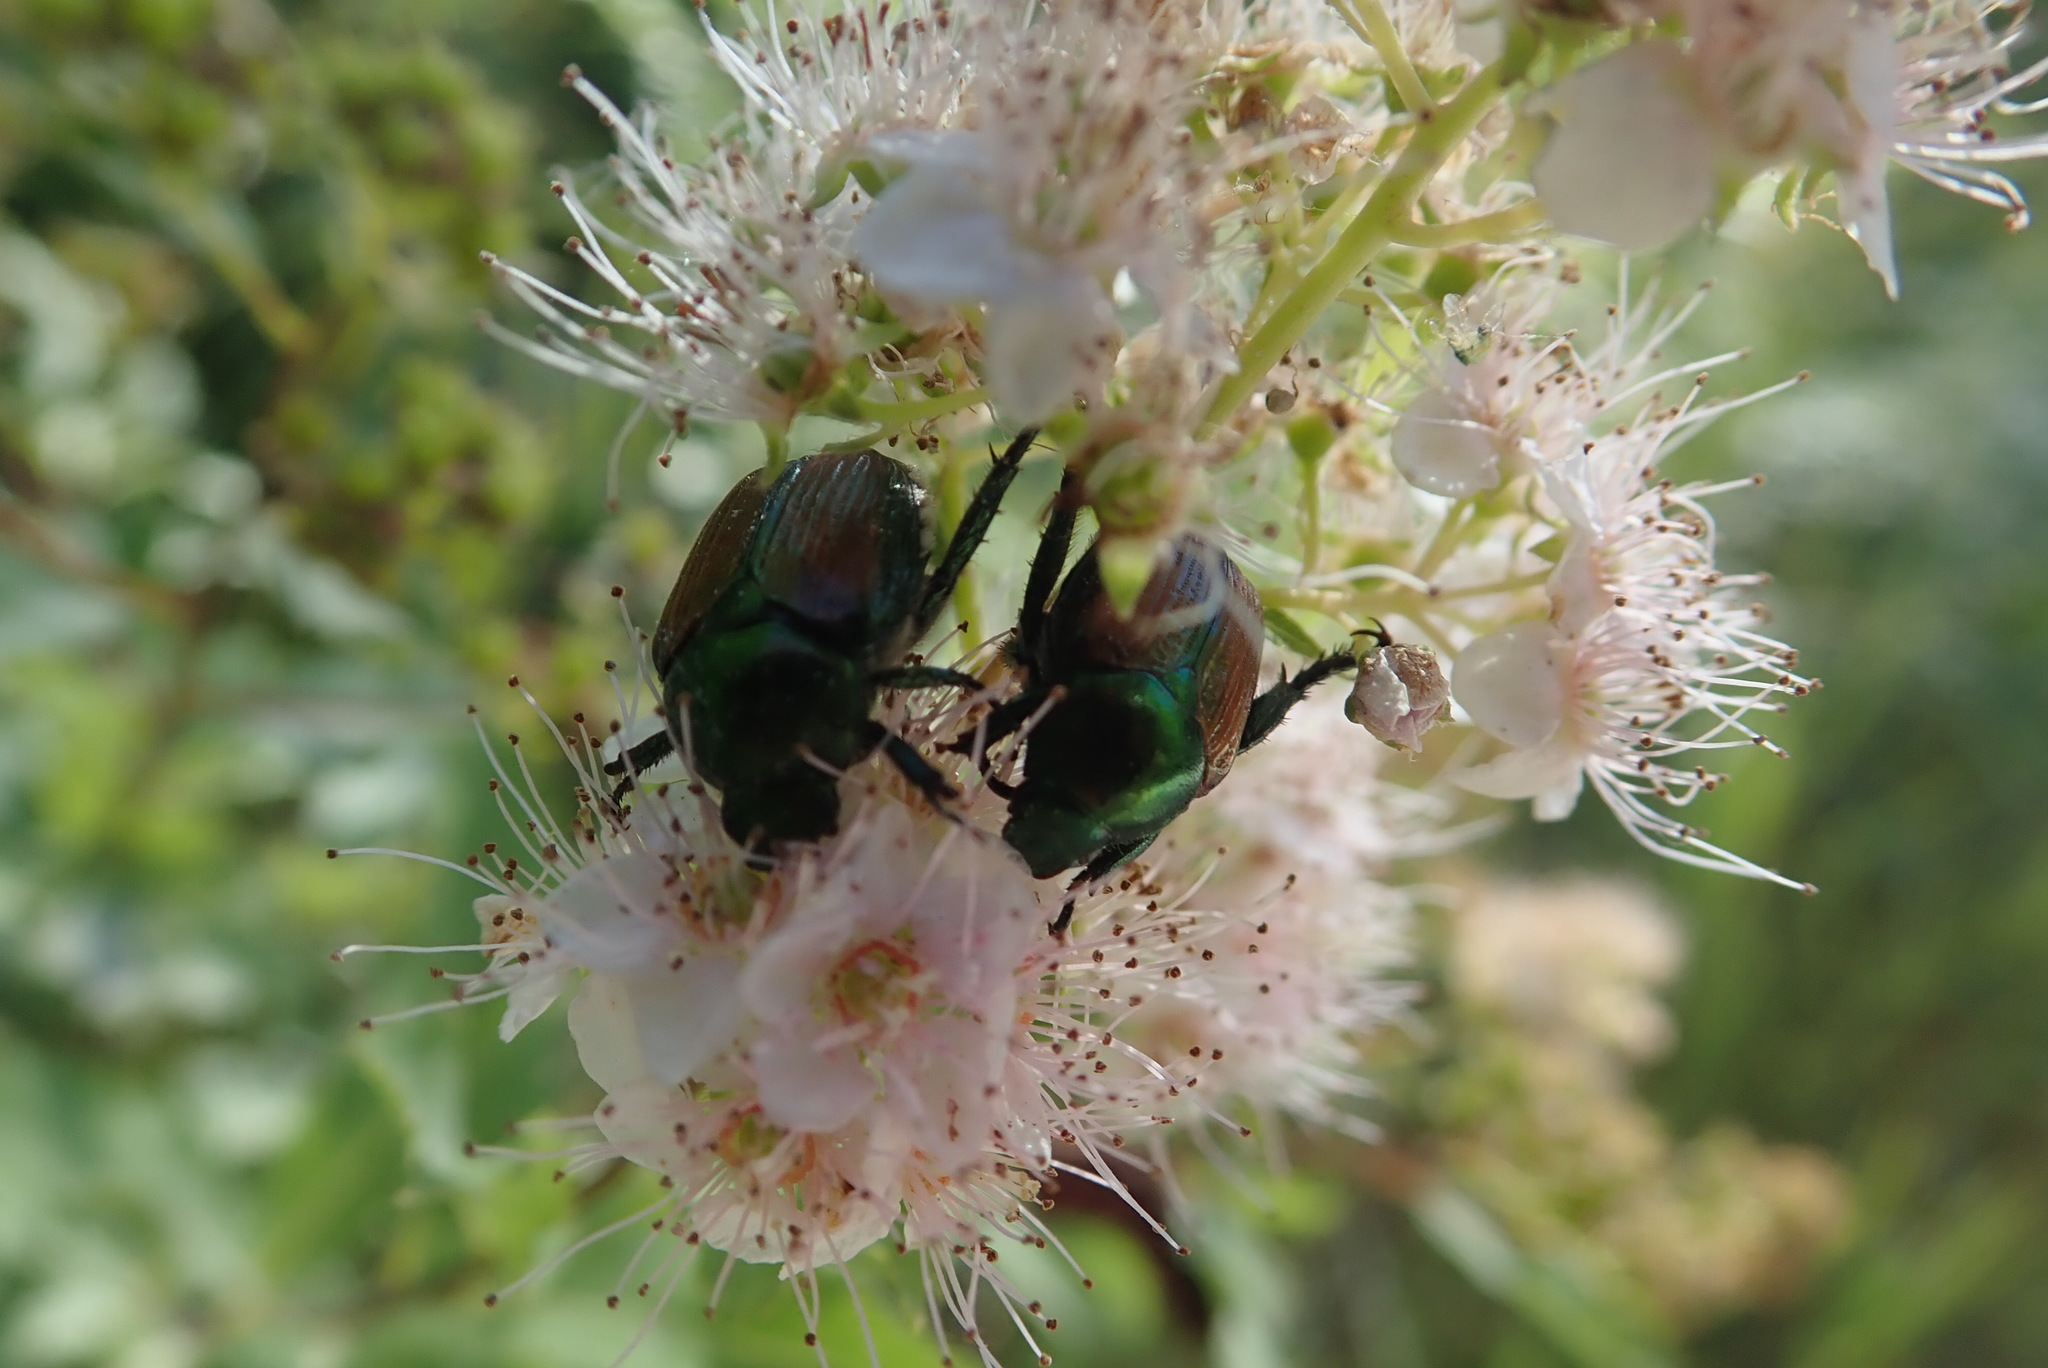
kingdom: Animalia
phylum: Arthropoda
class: Insecta
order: Coleoptera
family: Scarabaeidae
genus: Popillia
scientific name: Popillia japonica
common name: Japanese beetle
